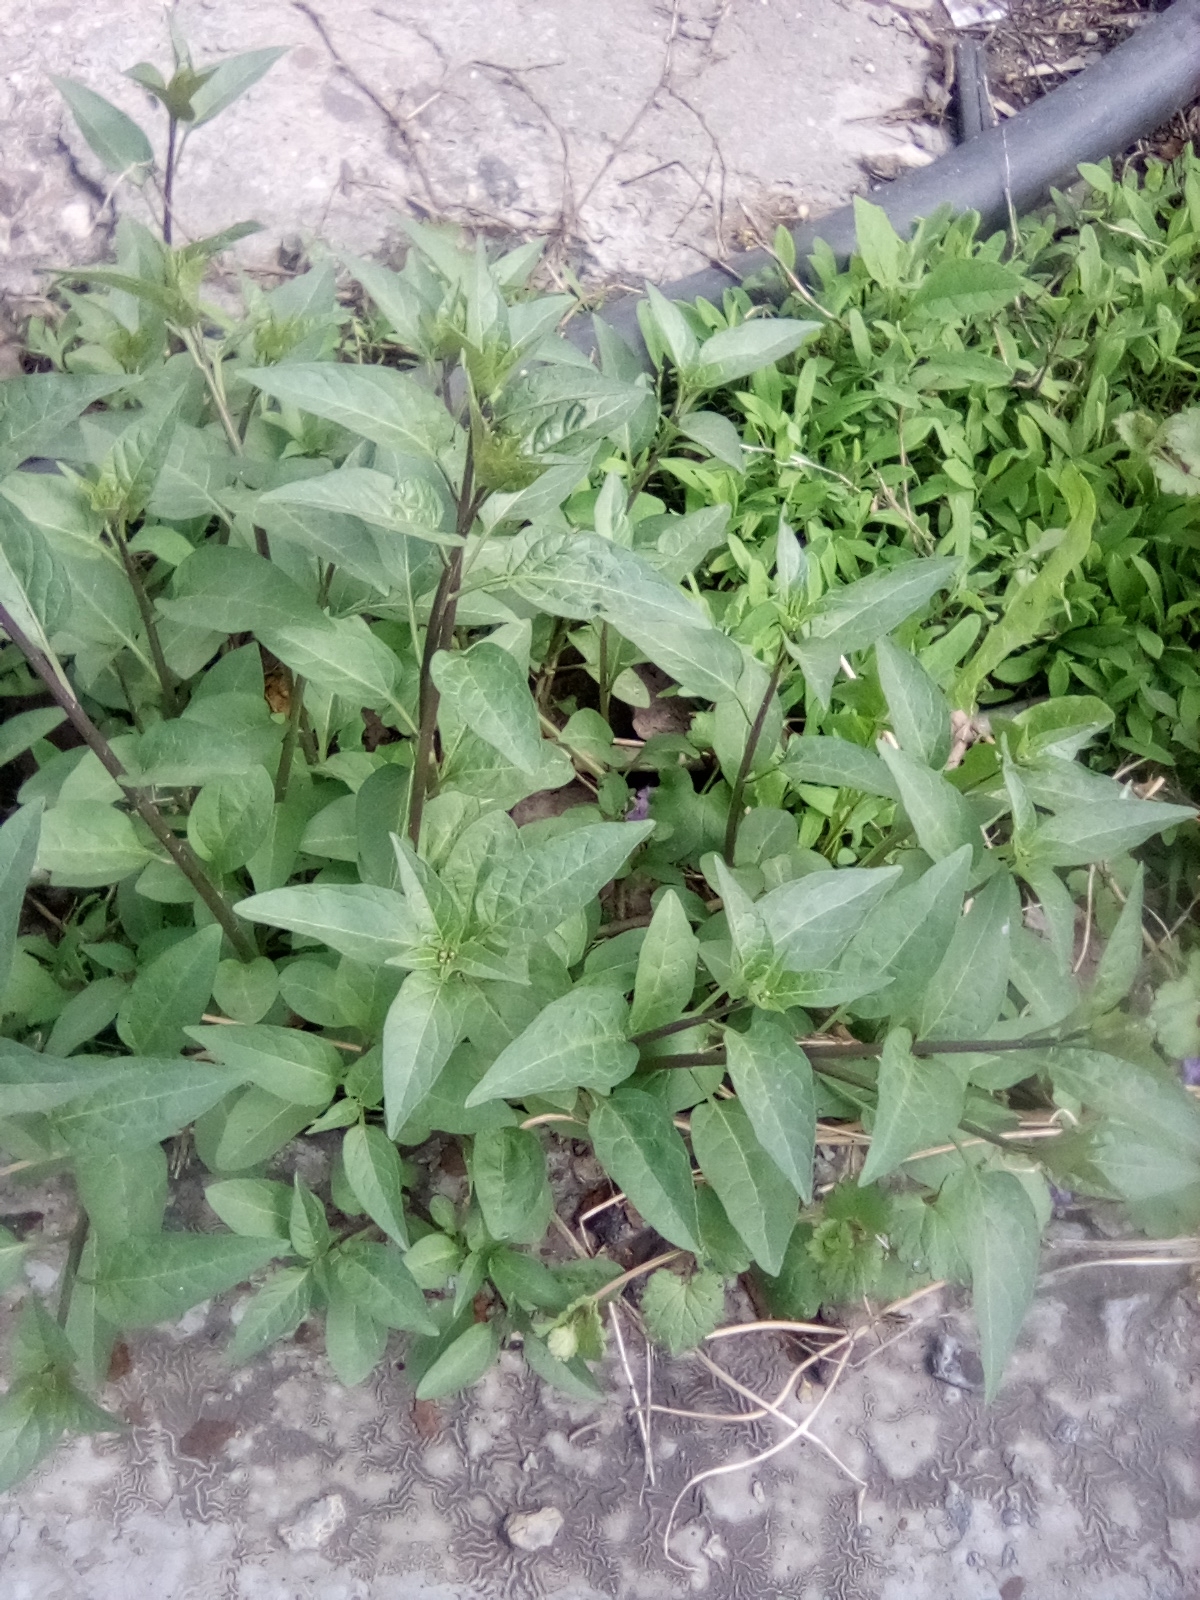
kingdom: Plantae
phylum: Tracheophyta
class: Magnoliopsida
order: Solanales
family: Solanaceae
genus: Solanum
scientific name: Solanum dulcamara
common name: Climbing nightshade
